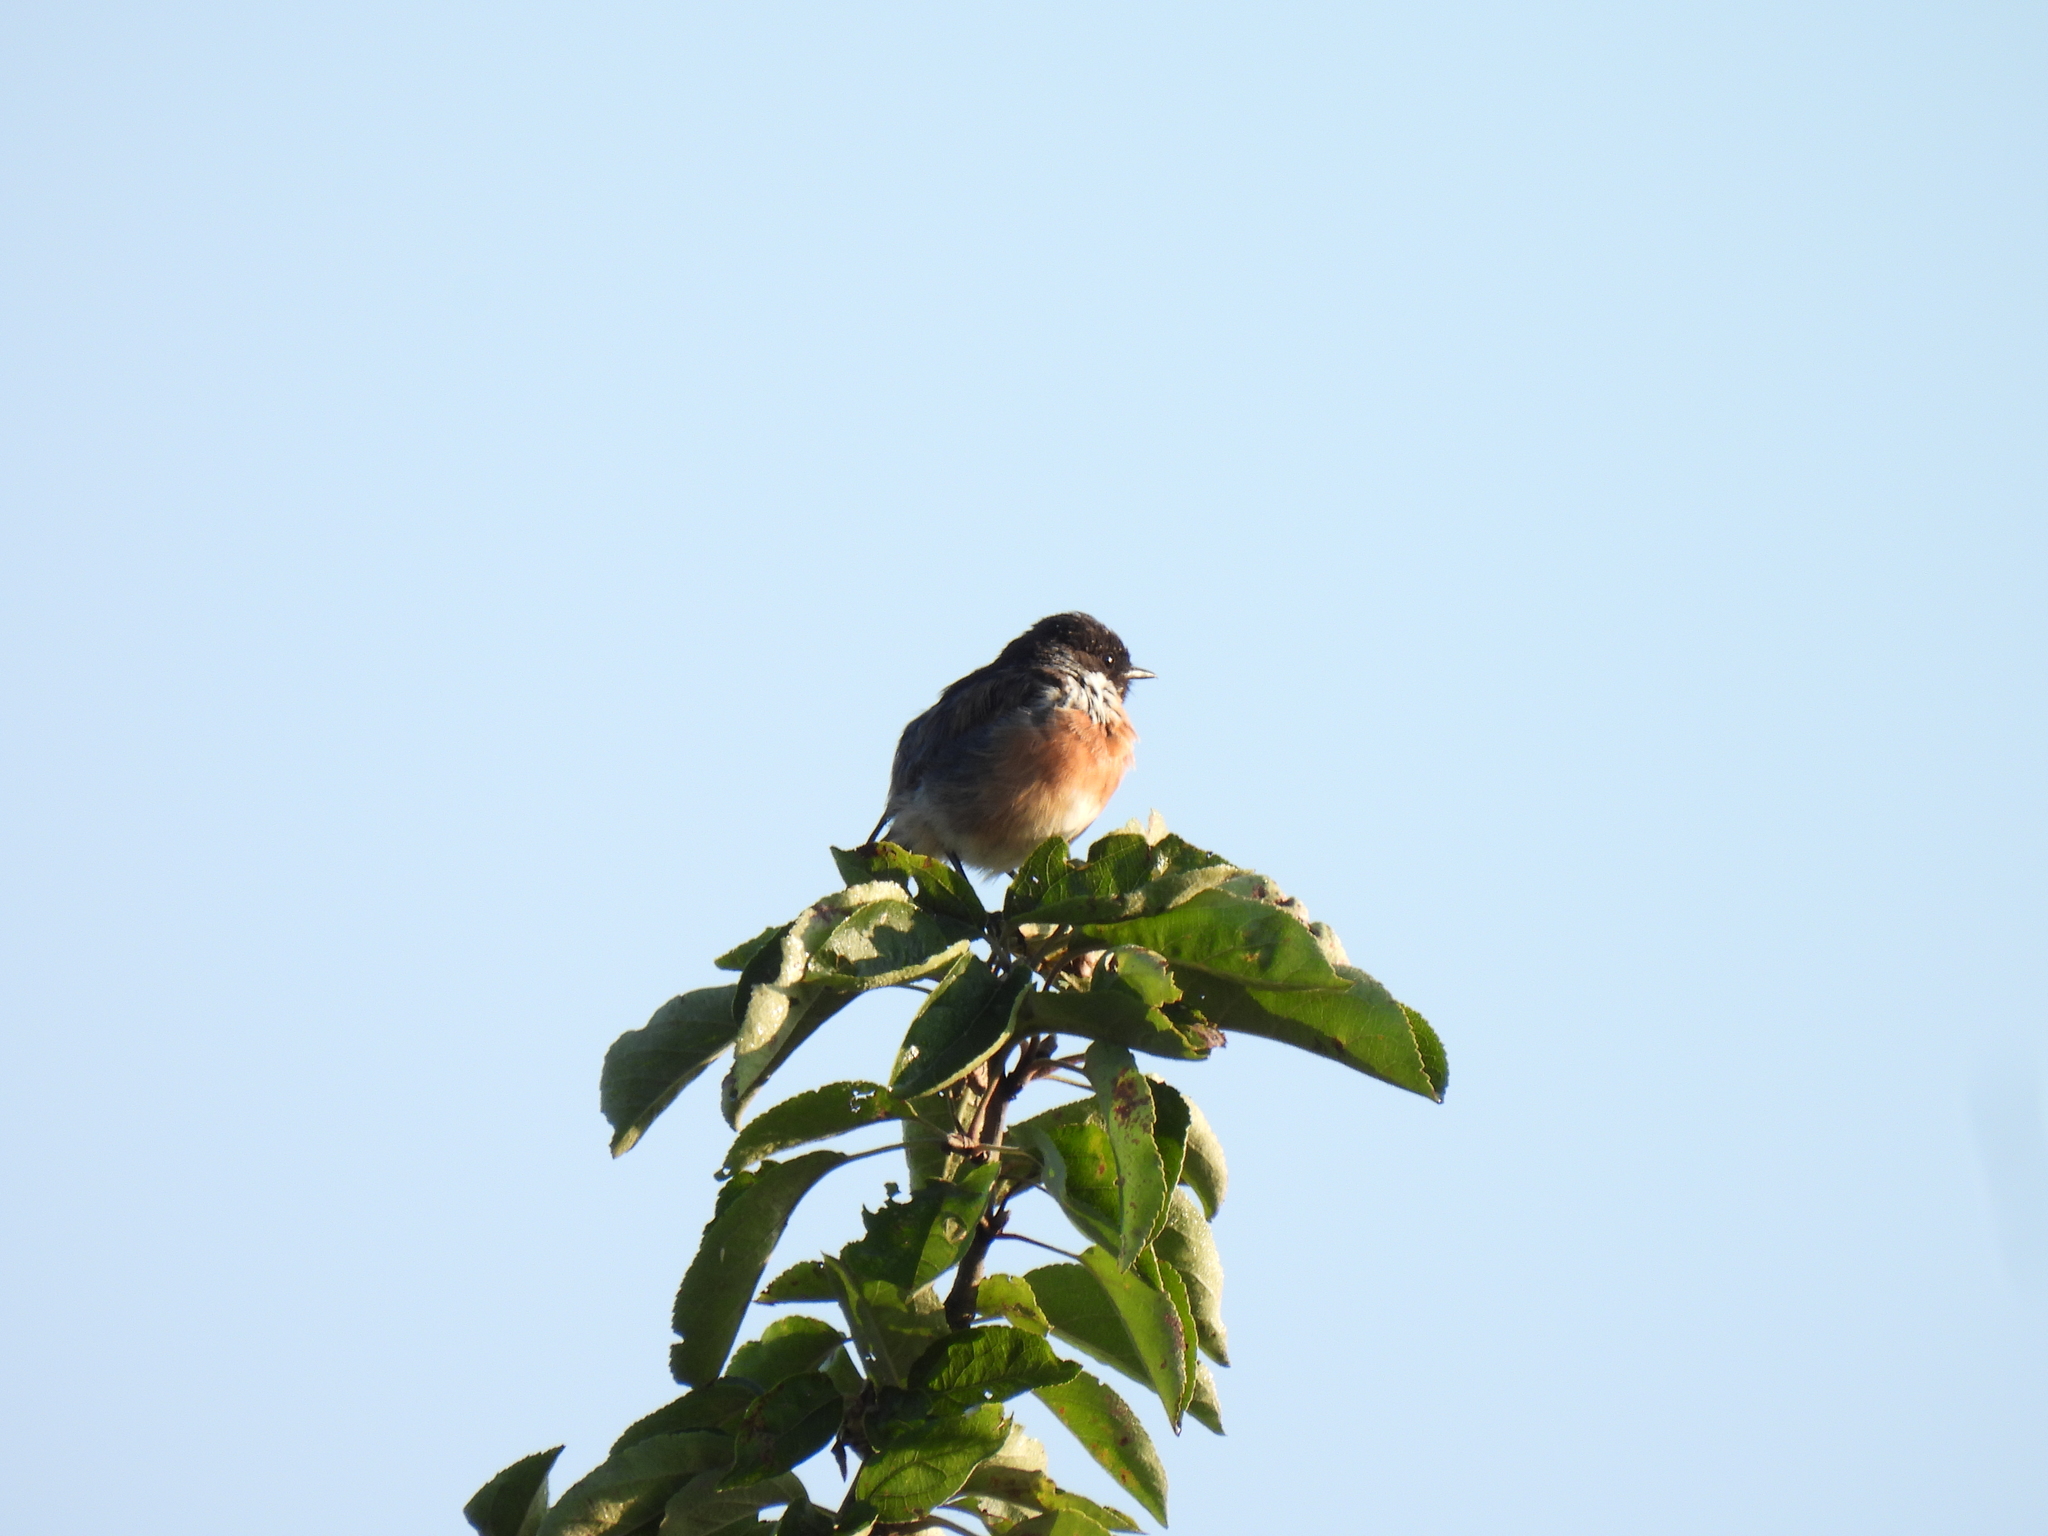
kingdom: Animalia
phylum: Chordata
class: Aves
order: Passeriformes
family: Muscicapidae
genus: Saxicola
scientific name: Saxicola rubicola
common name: European stonechat
